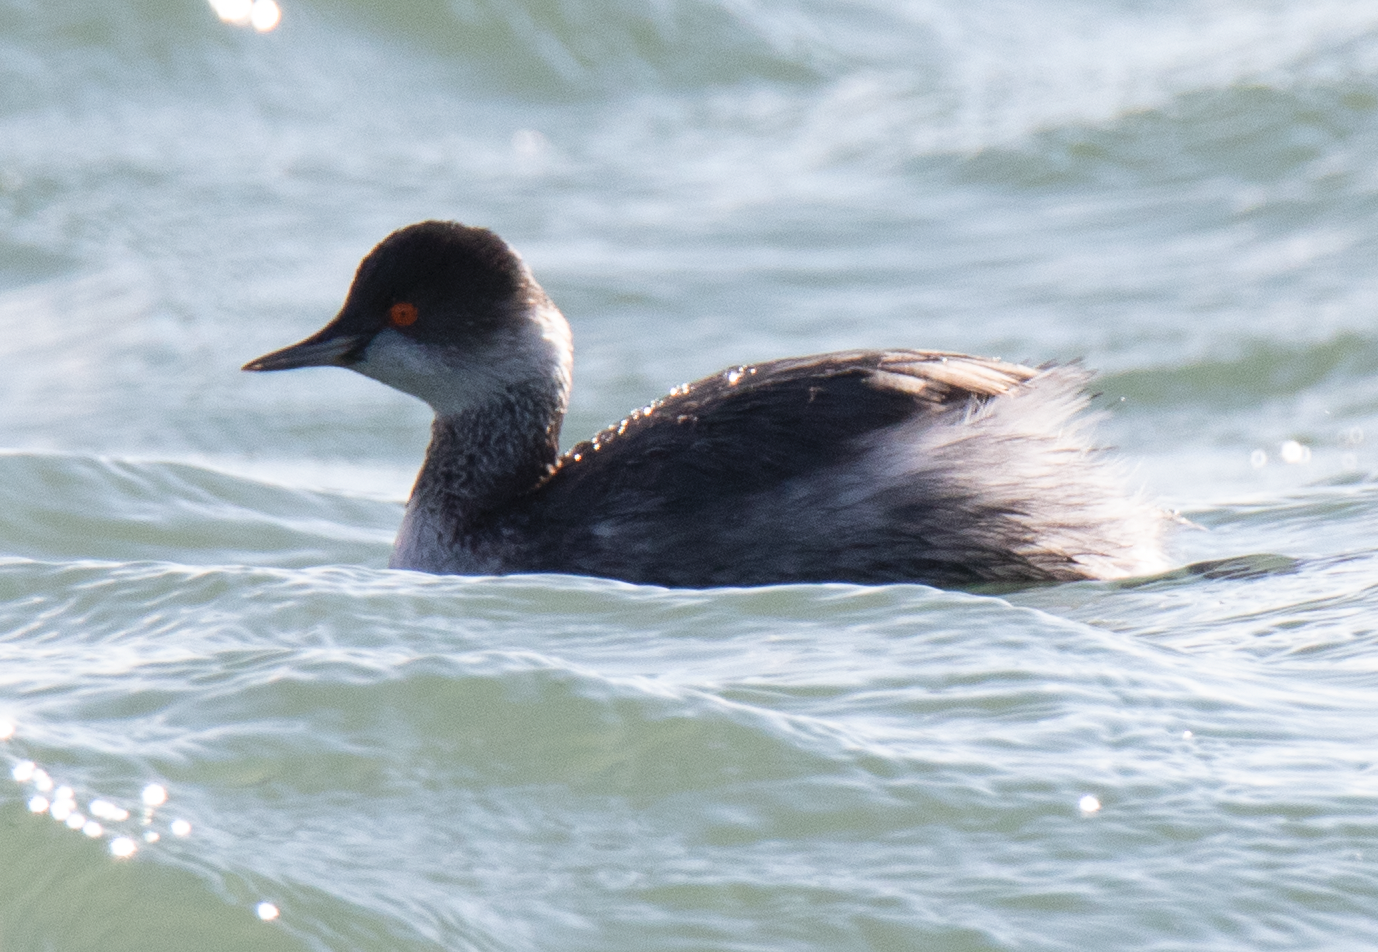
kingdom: Animalia
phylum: Chordata
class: Aves
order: Podicipediformes
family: Podicipedidae
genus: Podiceps
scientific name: Podiceps nigricollis
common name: Black-necked grebe
